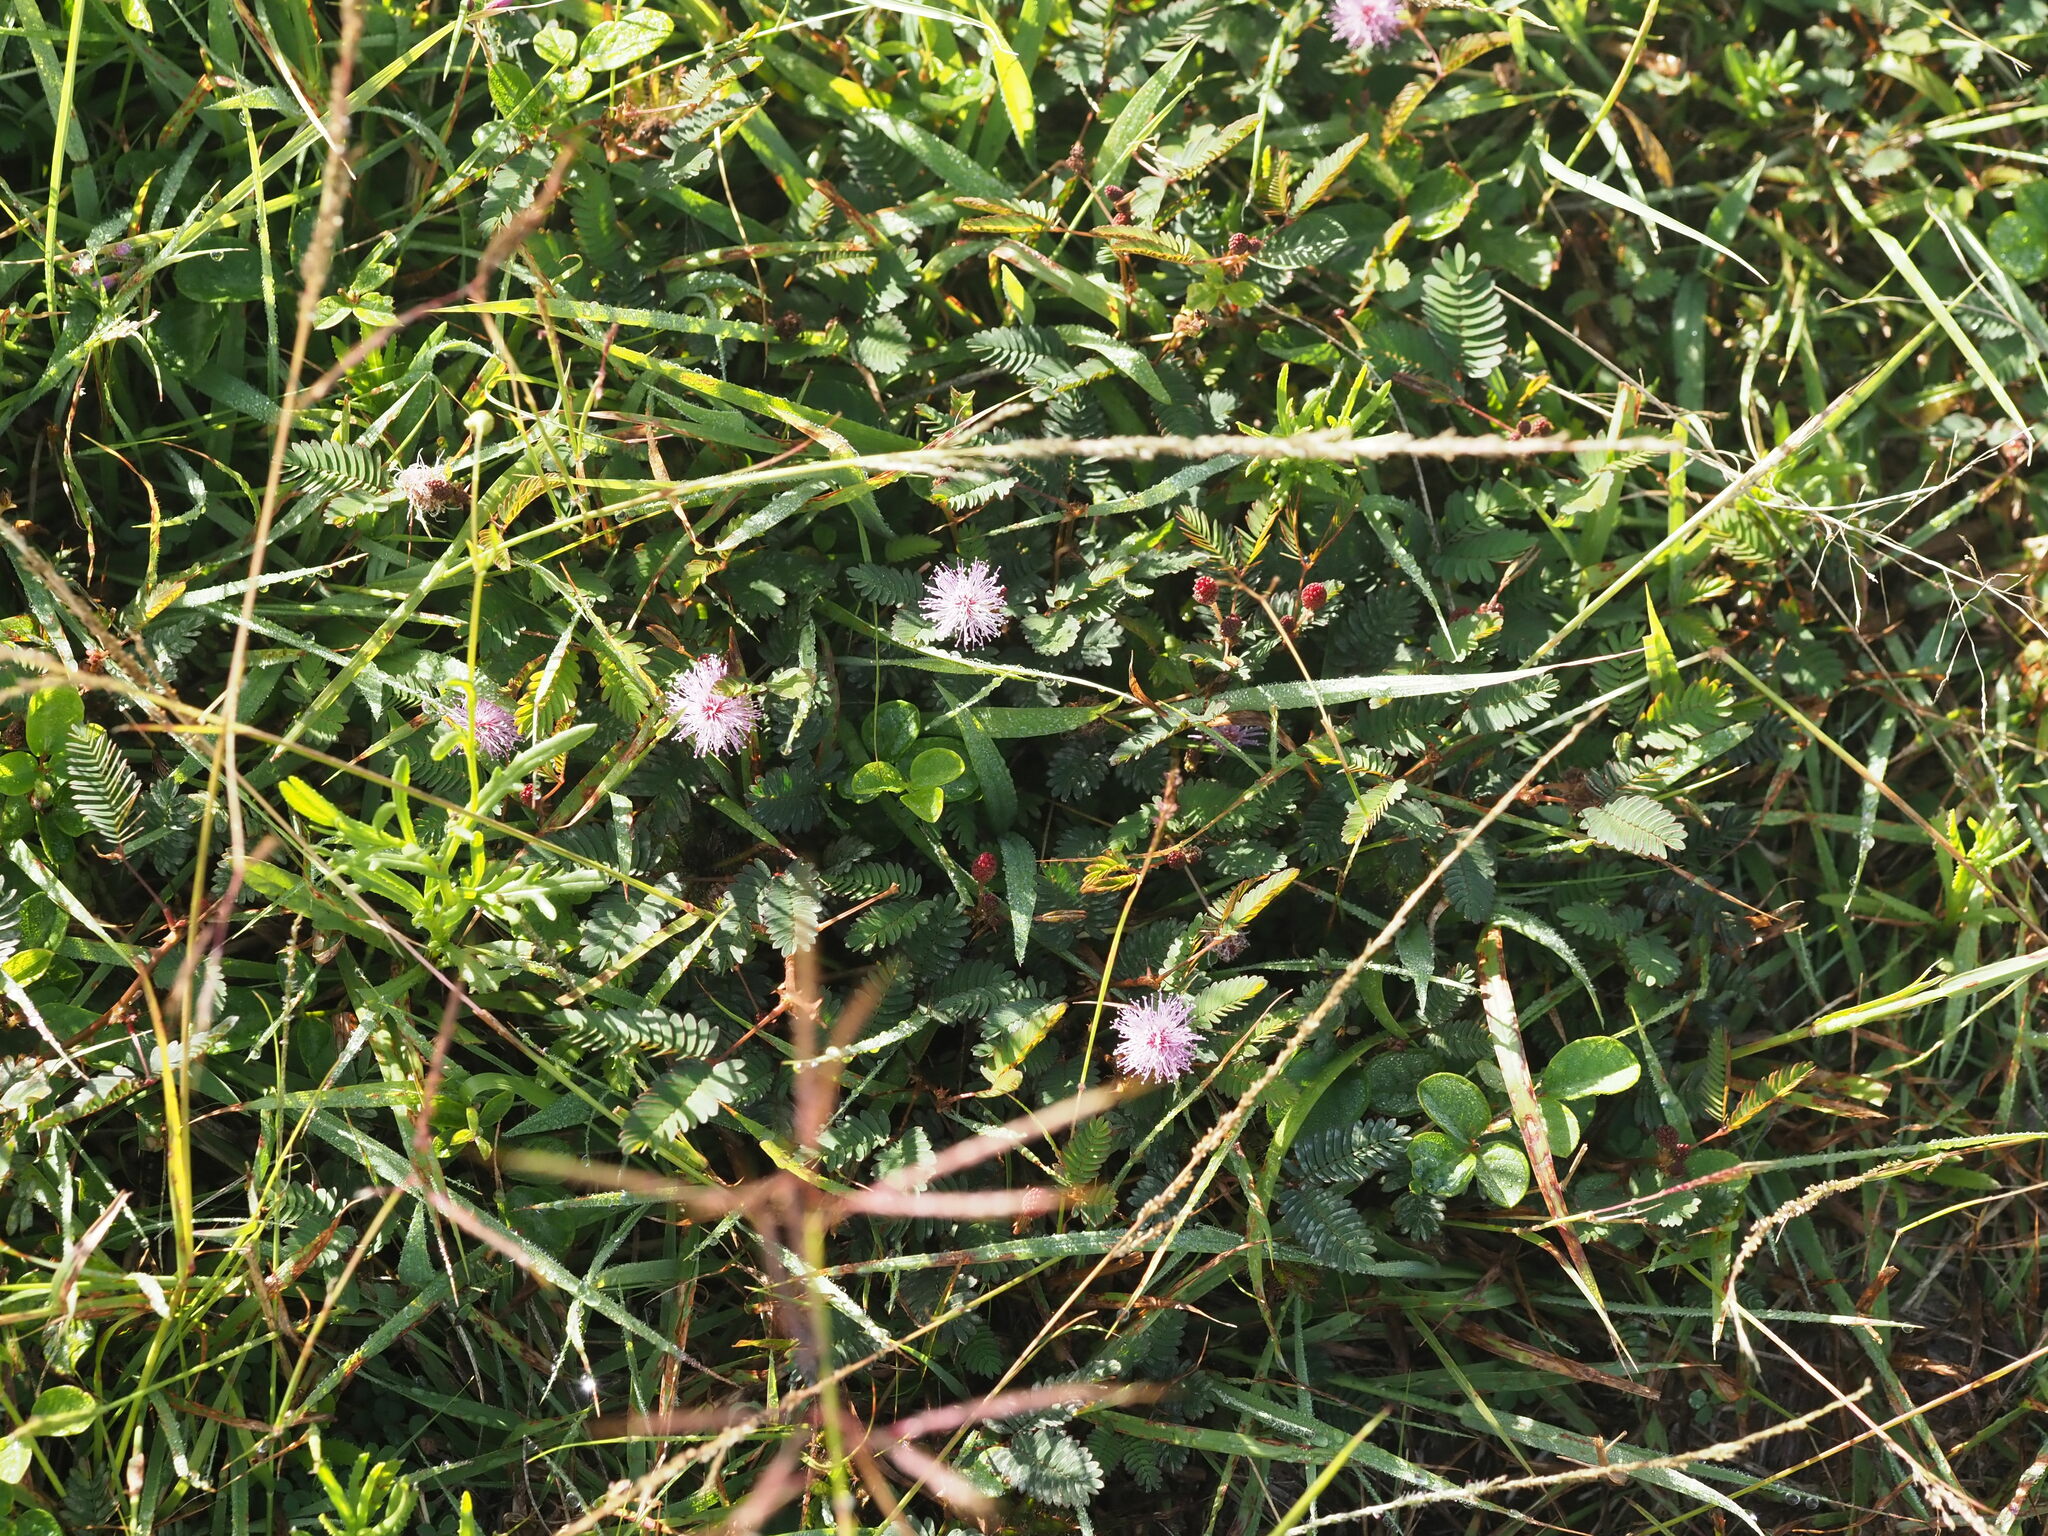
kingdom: Plantae
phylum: Tracheophyta
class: Magnoliopsida
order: Fabales
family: Fabaceae
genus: Mimosa
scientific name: Mimosa pudica
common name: Sensitive plant
